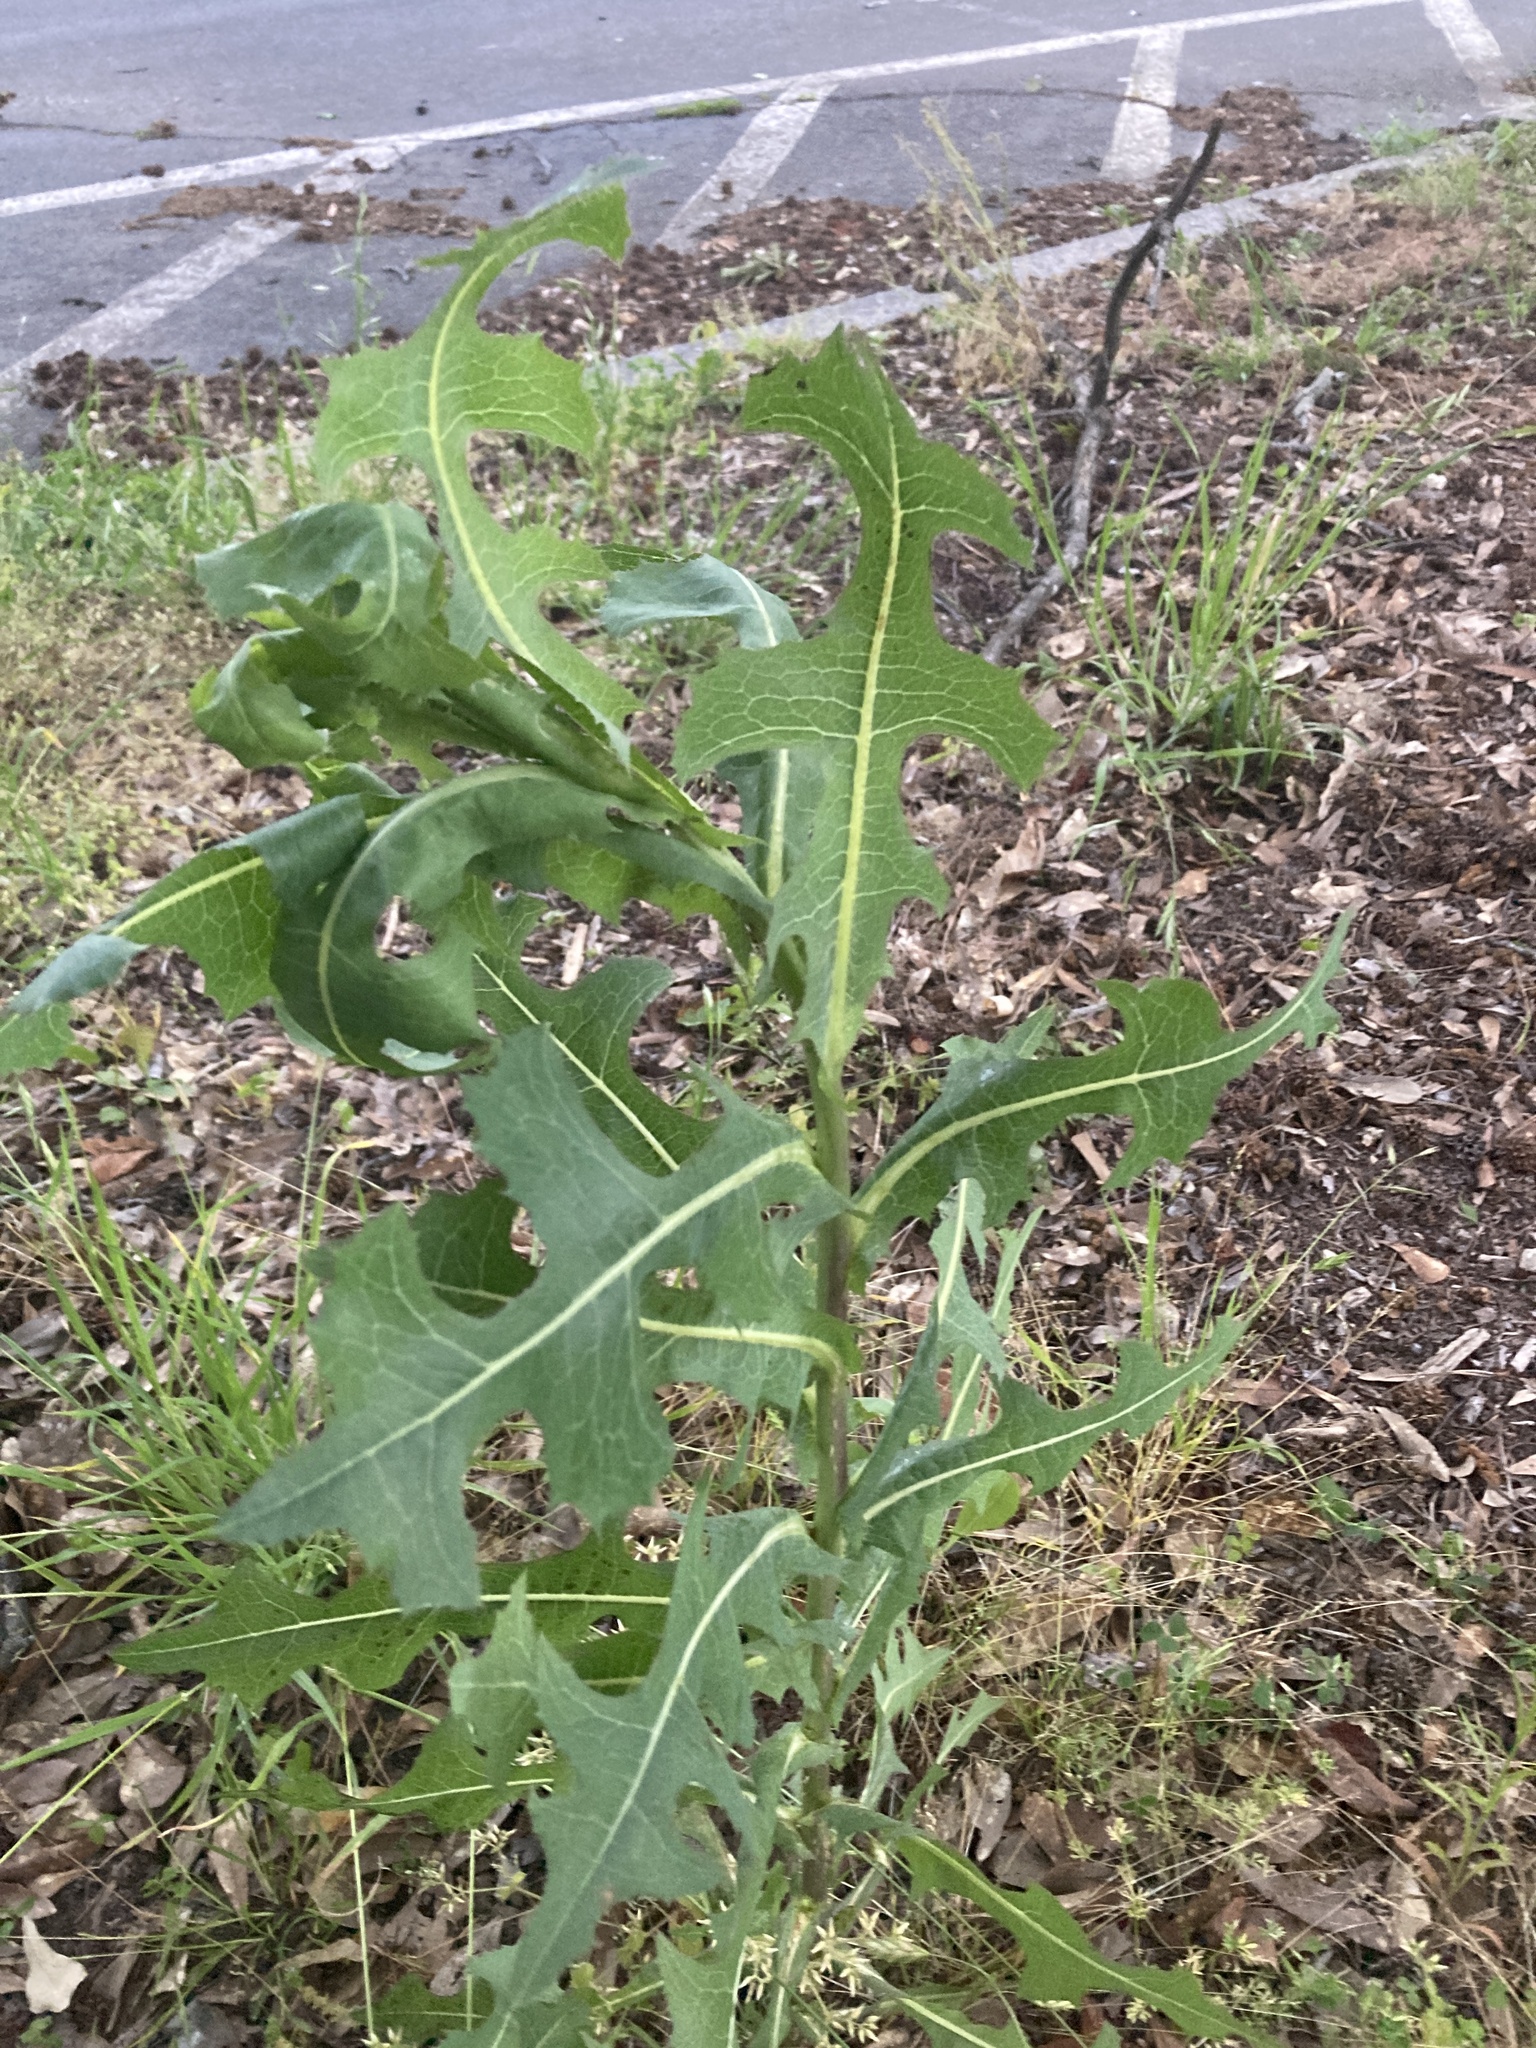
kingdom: Plantae
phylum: Tracheophyta
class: Magnoliopsida
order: Asterales
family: Asteraceae
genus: Lactuca
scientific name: Lactuca serriola
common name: Prickly lettuce
